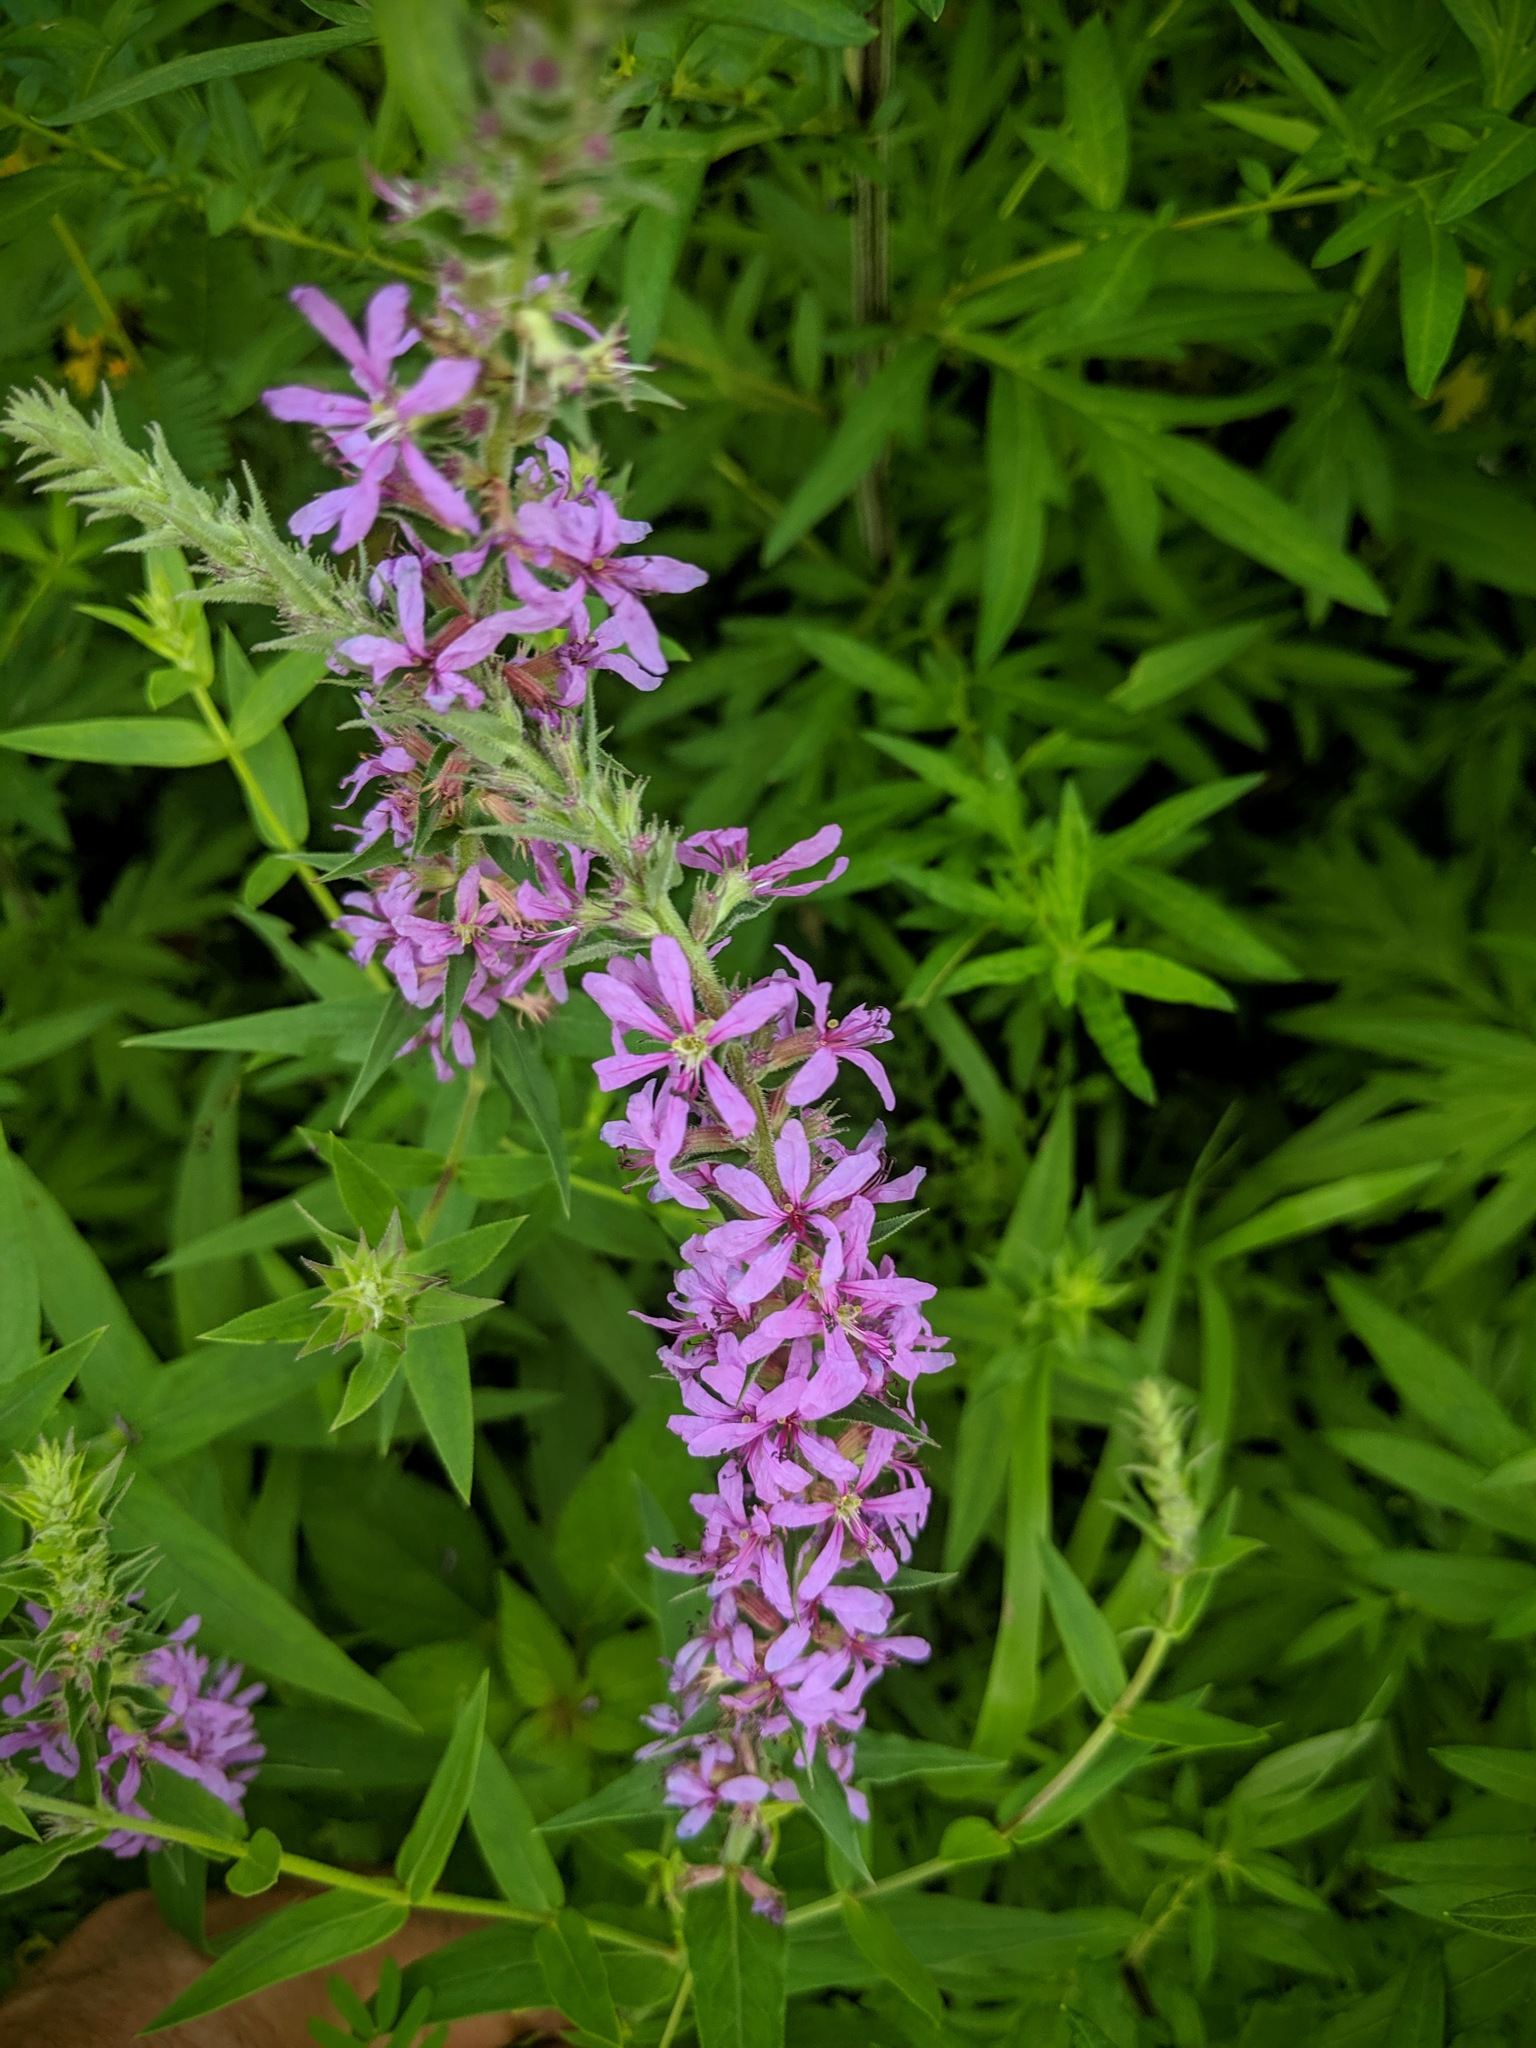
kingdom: Plantae
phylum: Tracheophyta
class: Magnoliopsida
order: Myrtales
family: Lythraceae
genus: Lythrum
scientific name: Lythrum salicaria
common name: Purple loosestrife
